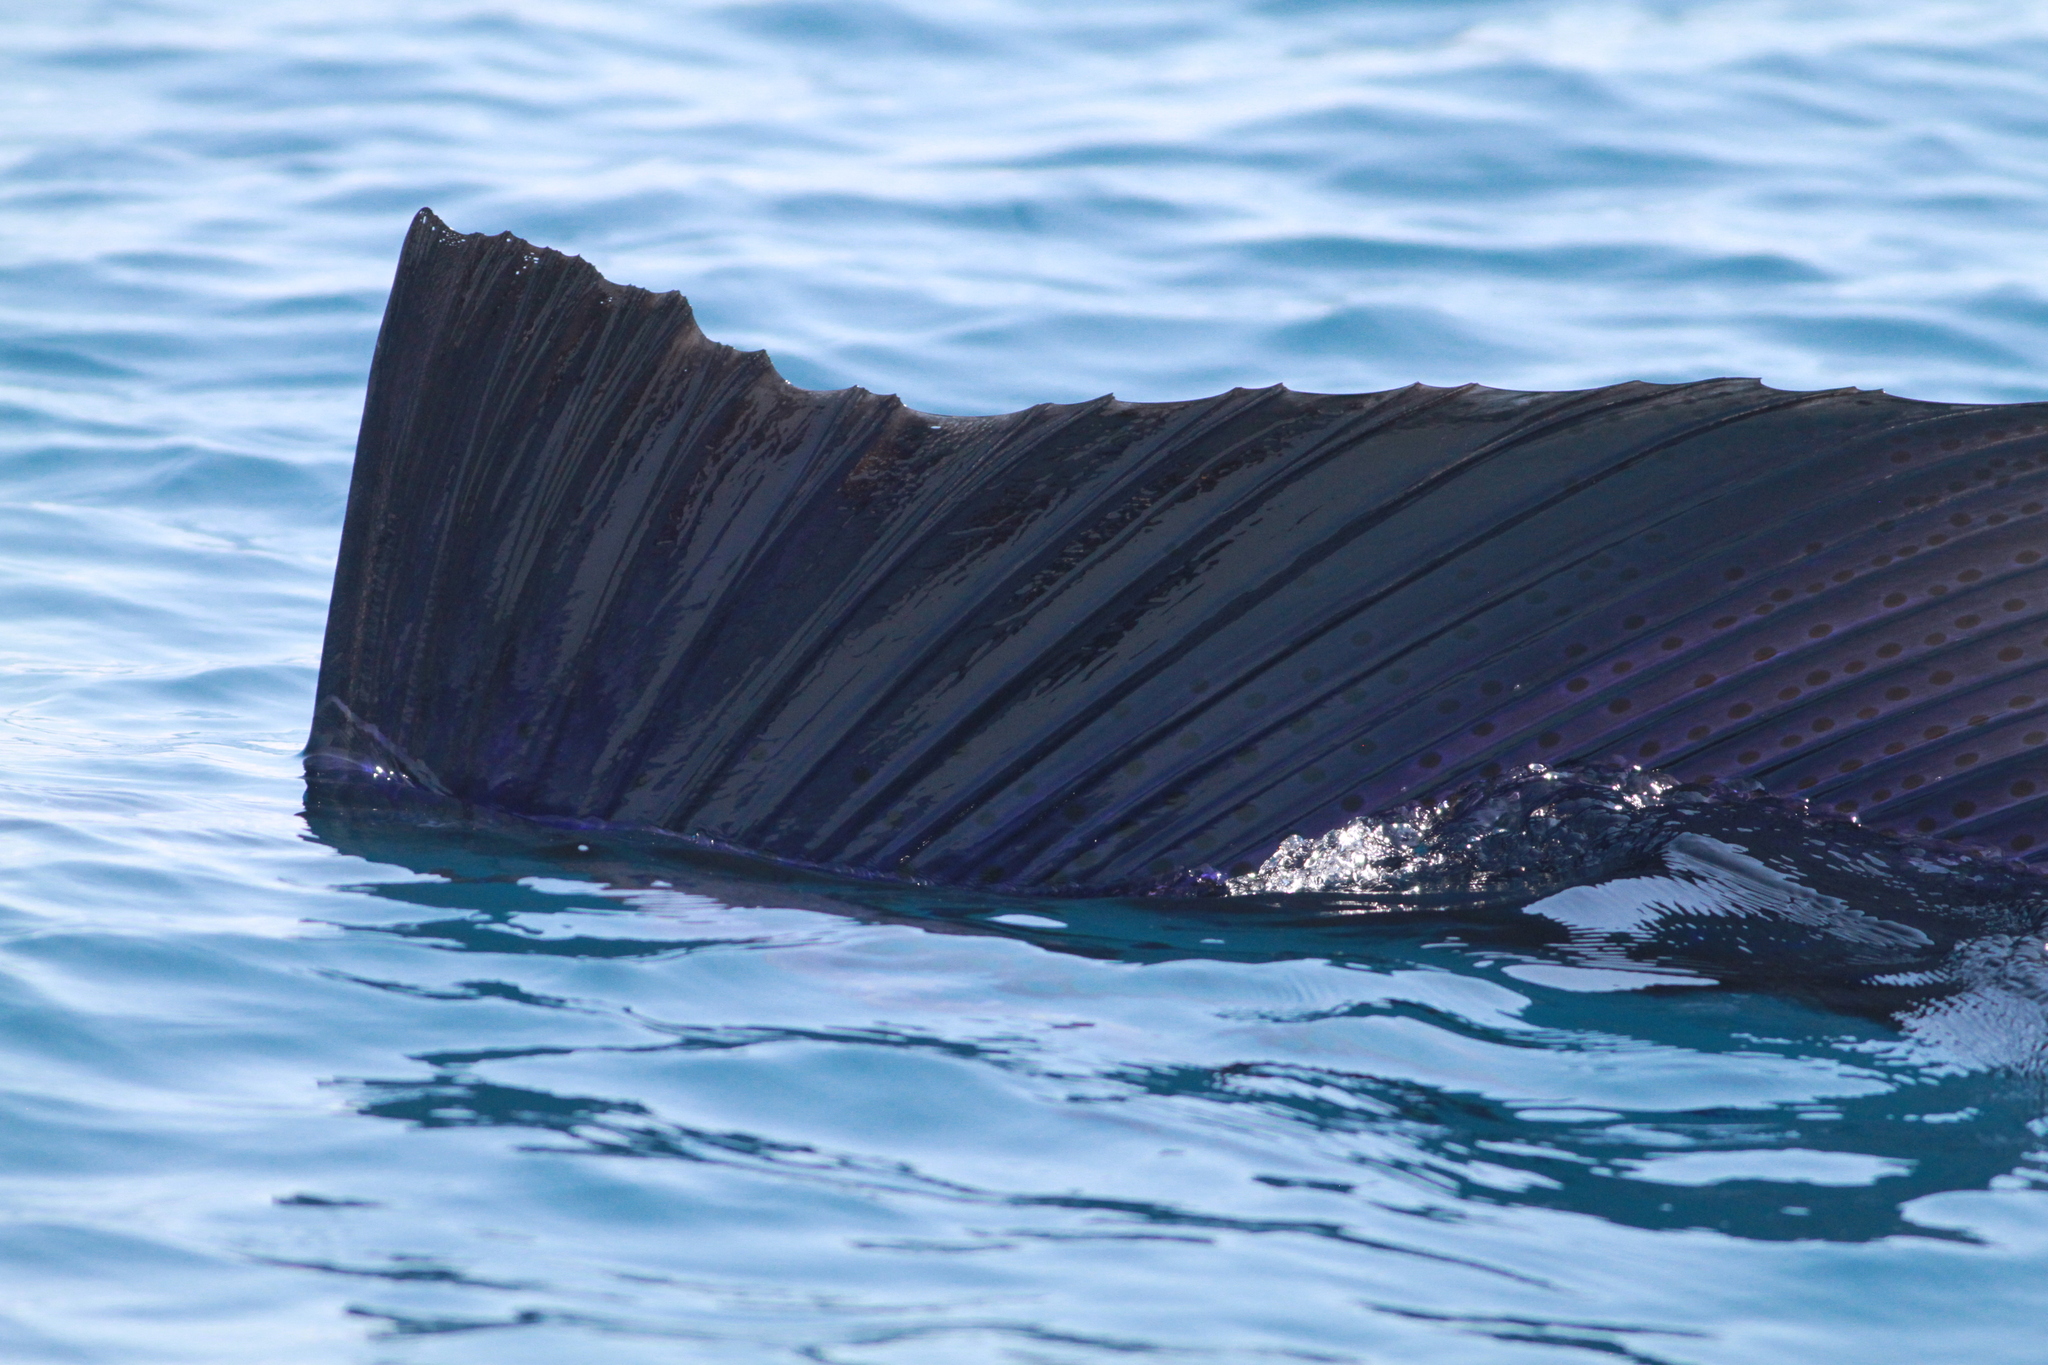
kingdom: Animalia
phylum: Chordata
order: Perciformes
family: Istiophoridae
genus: Istiophorus
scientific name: Istiophorus platypterus
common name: Sailfish
